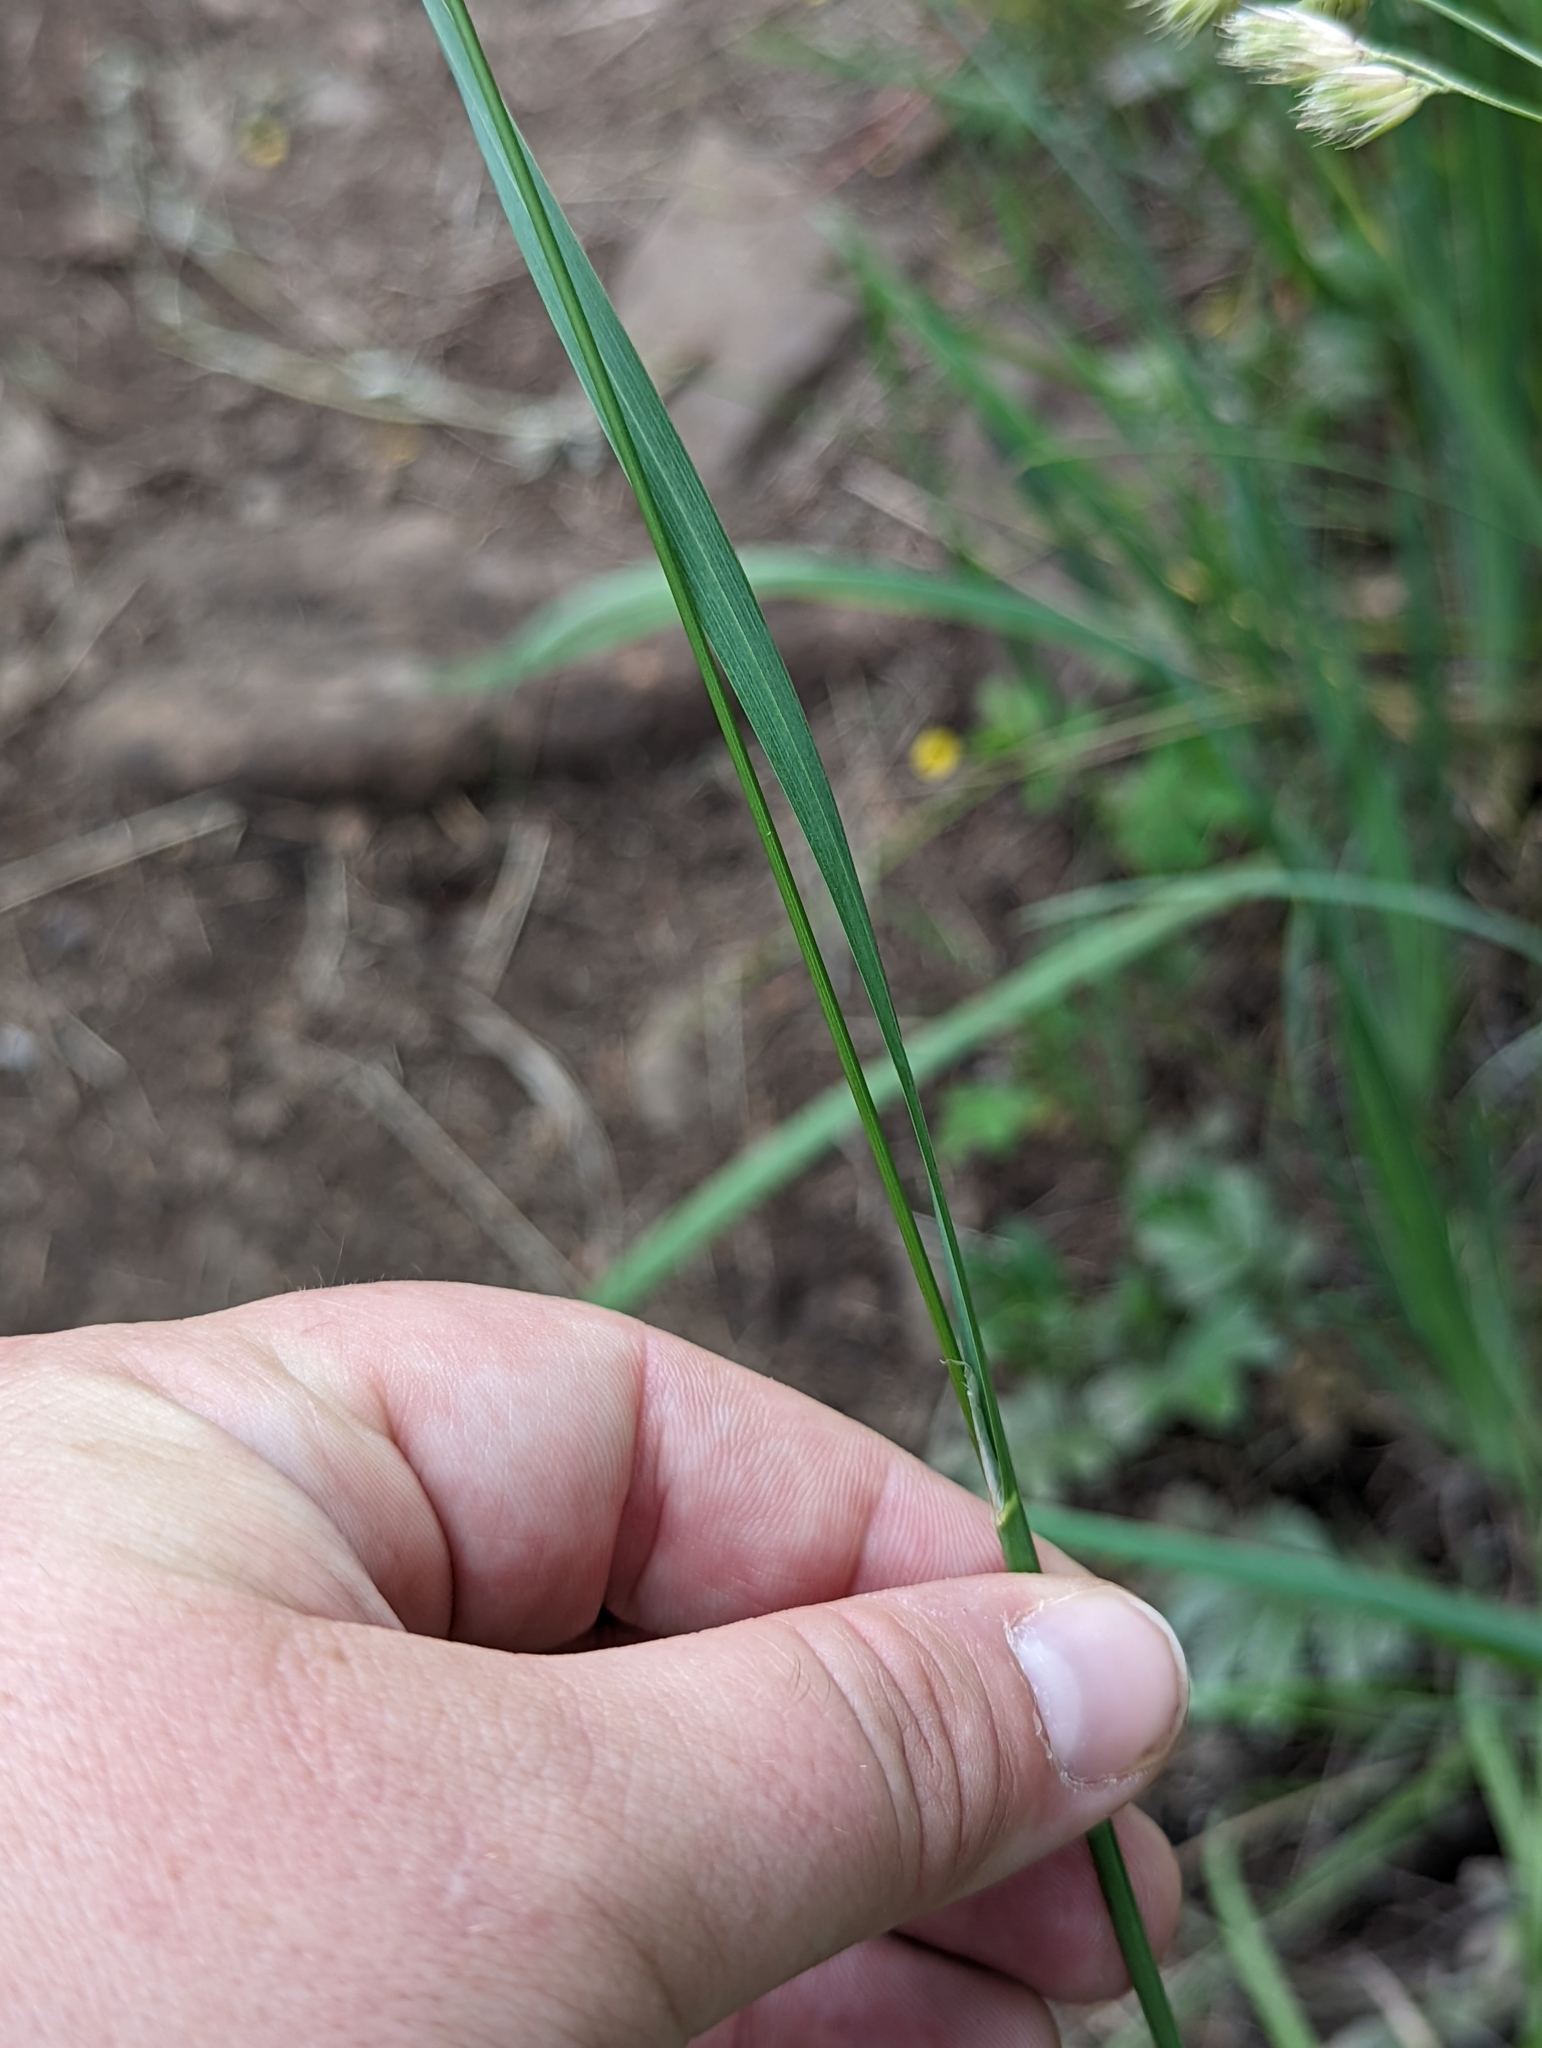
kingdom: Plantae
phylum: Tracheophyta
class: Liliopsida
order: Poales
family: Poaceae
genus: Dactylis
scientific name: Dactylis glomerata
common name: Orchardgrass
